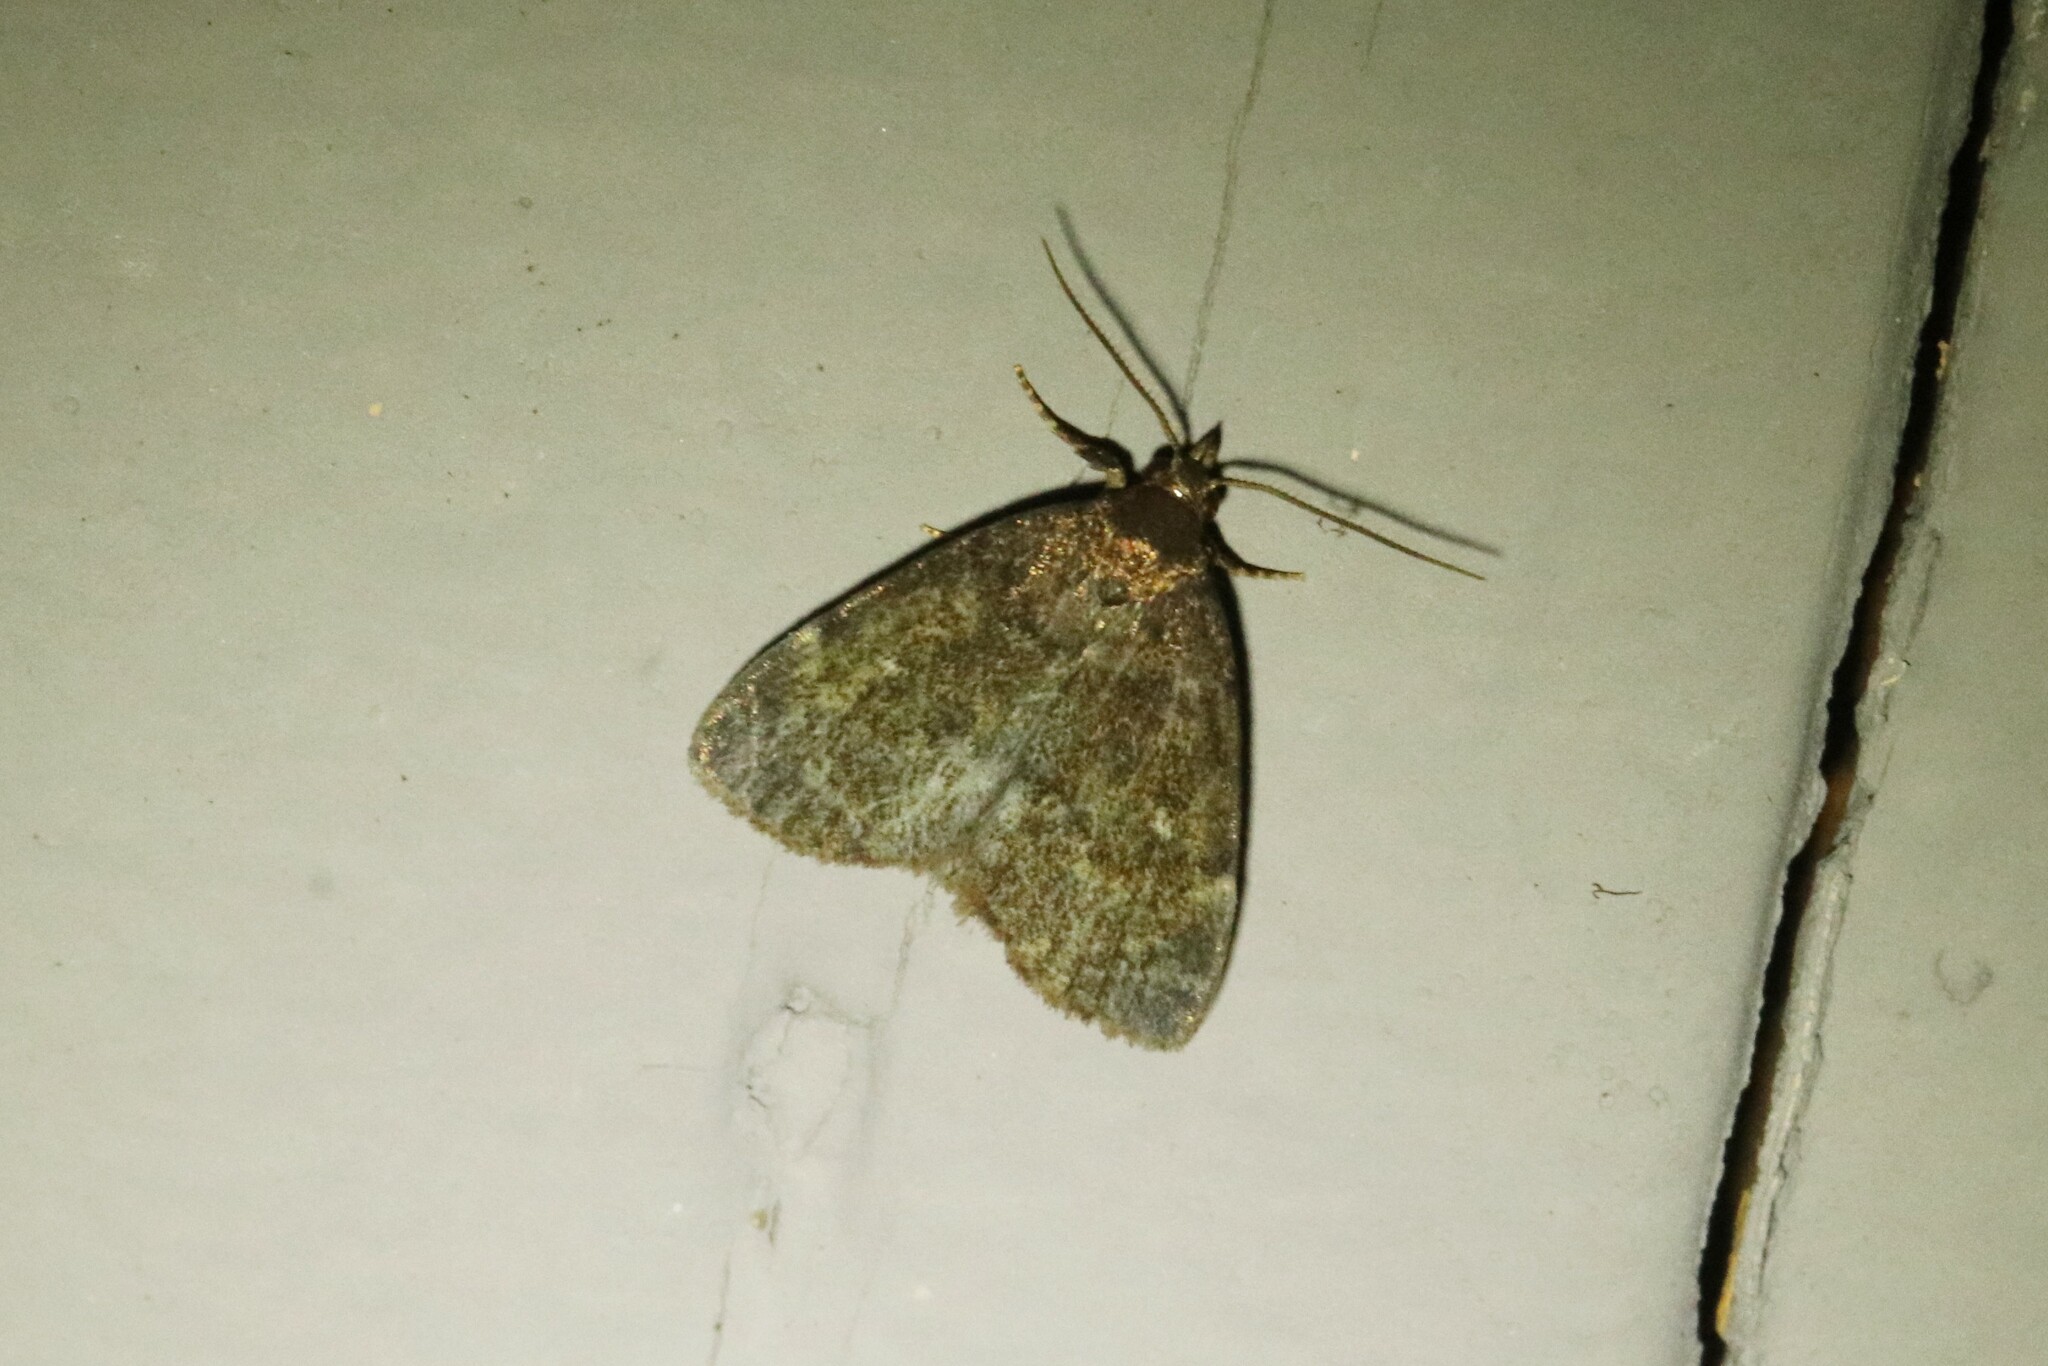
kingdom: Animalia
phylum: Arthropoda
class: Insecta
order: Lepidoptera
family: Erebidae
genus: Idia
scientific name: Idia rotundalis
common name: Rotund idia moth
